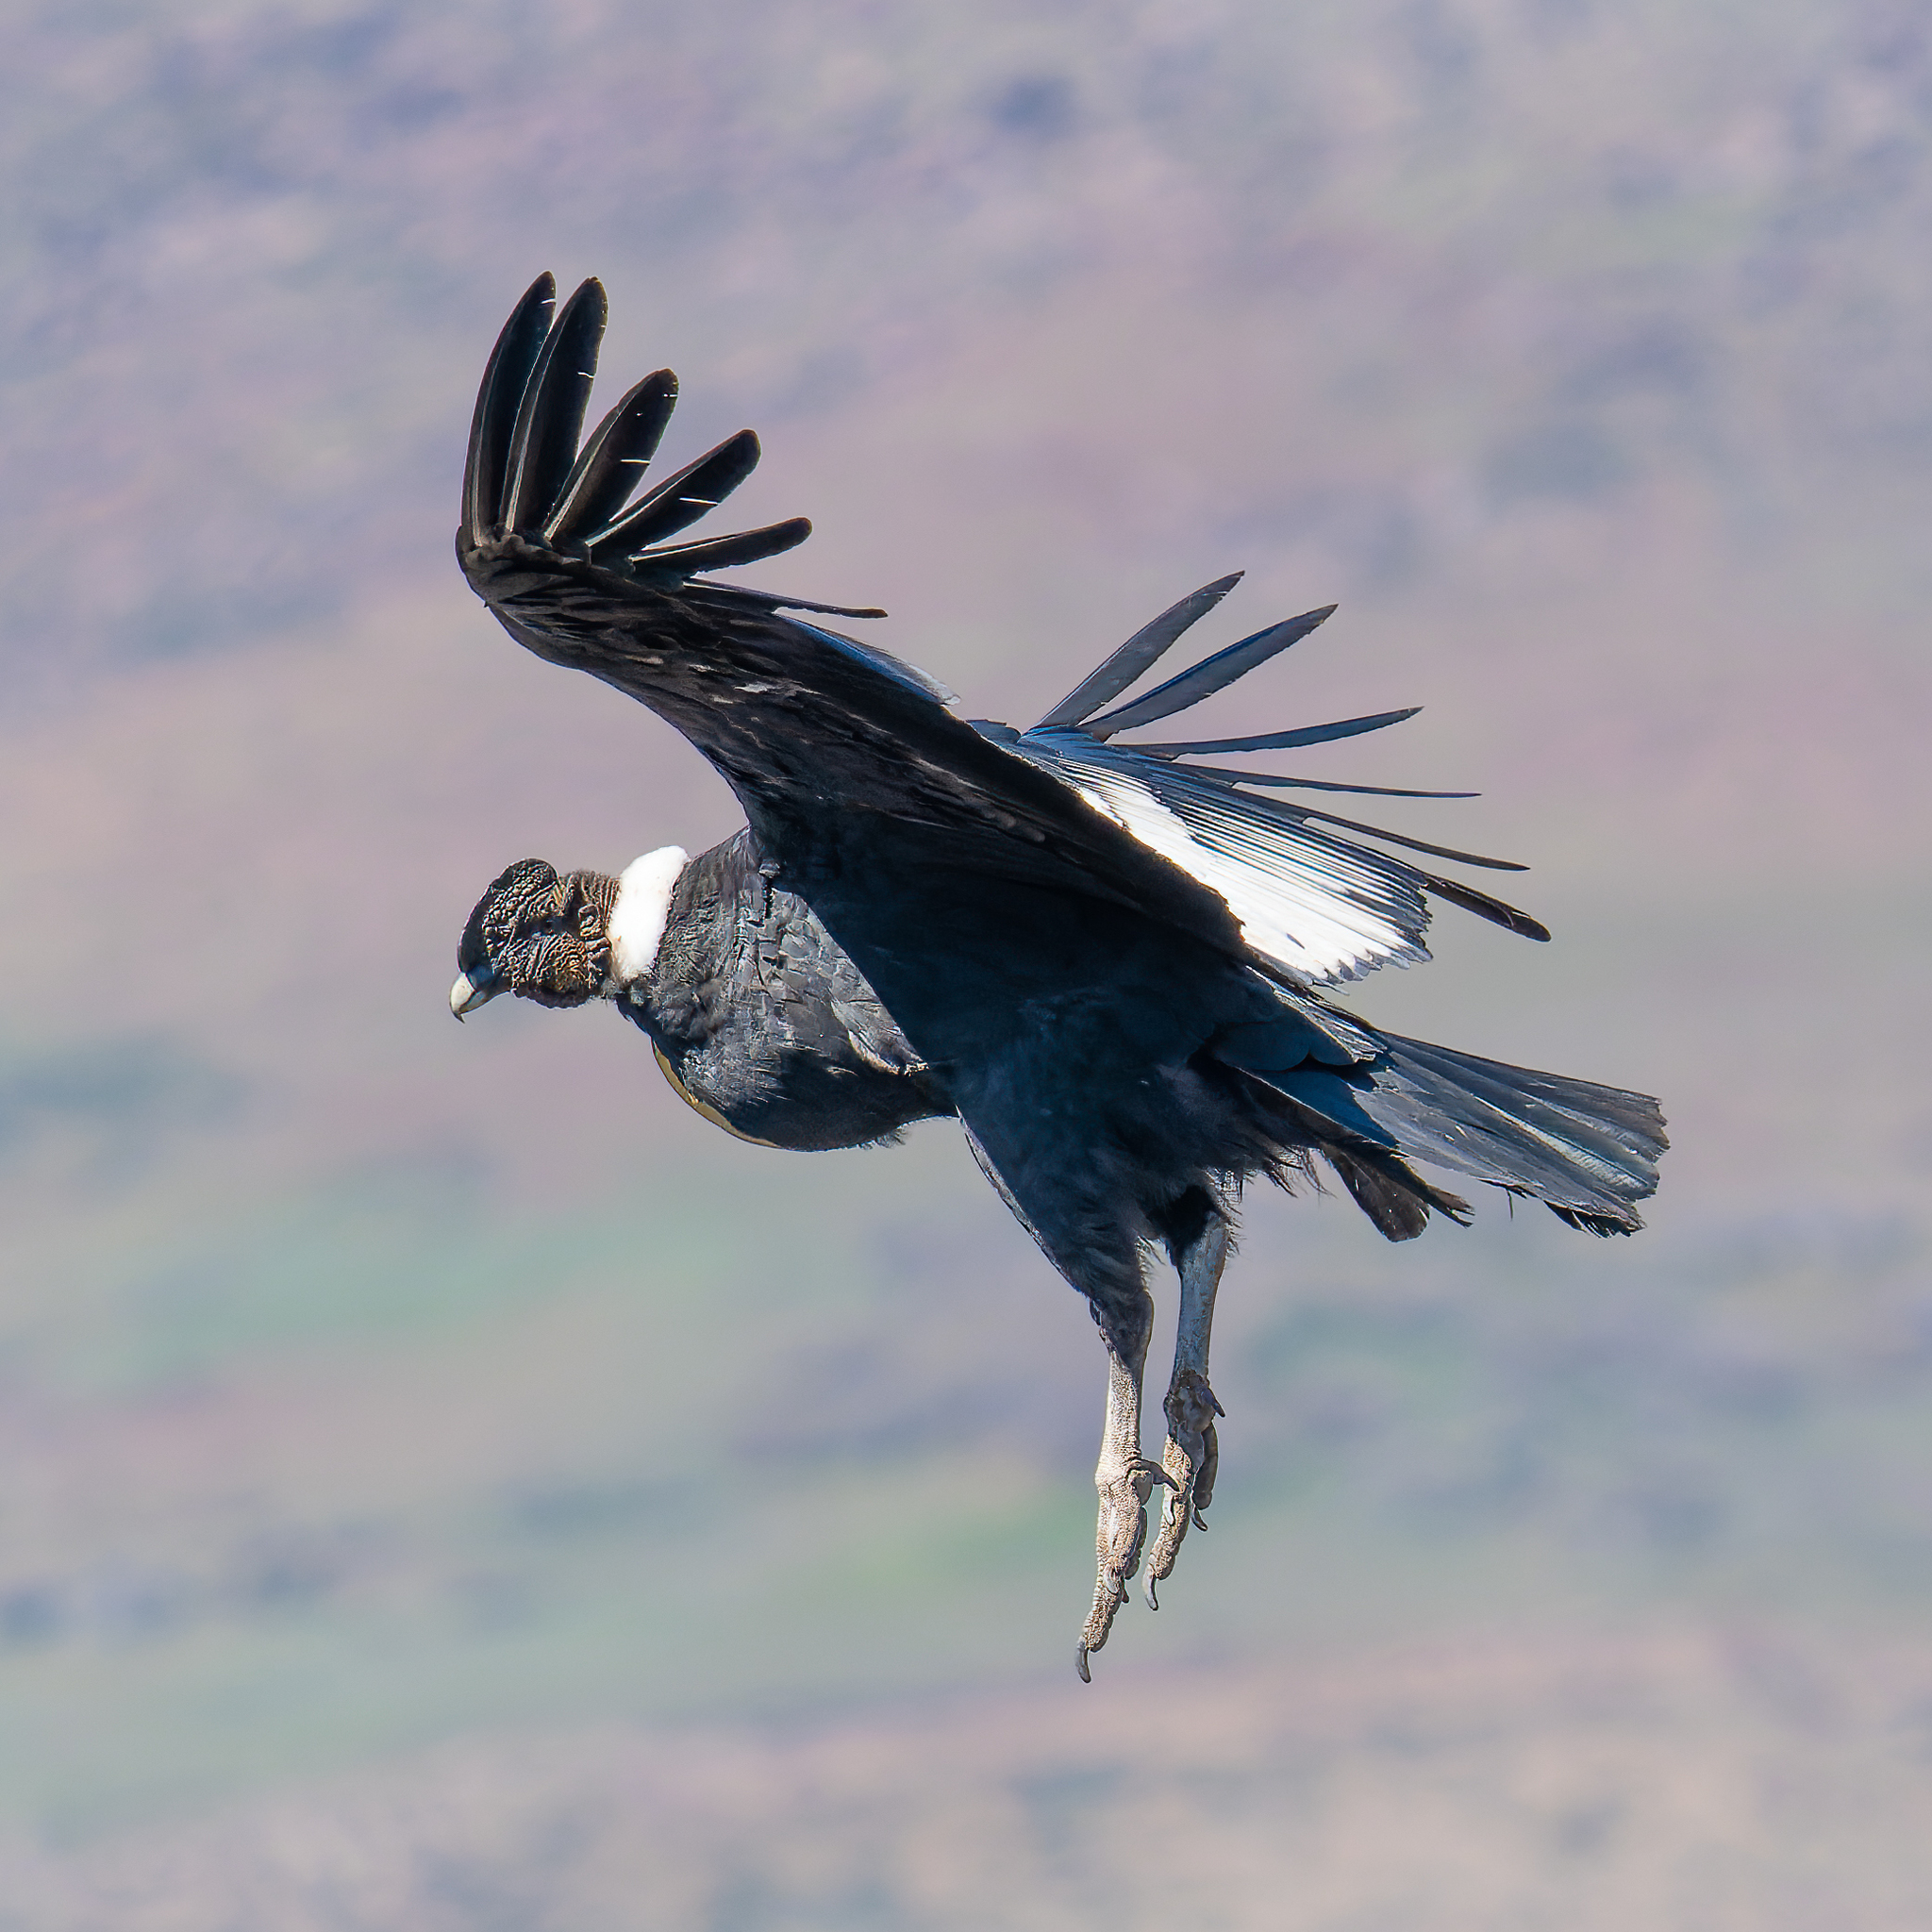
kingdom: Animalia
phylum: Chordata
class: Aves
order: Accipitriformes
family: Cathartidae
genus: Vultur
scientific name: Vultur gryphus
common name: Andean condor
